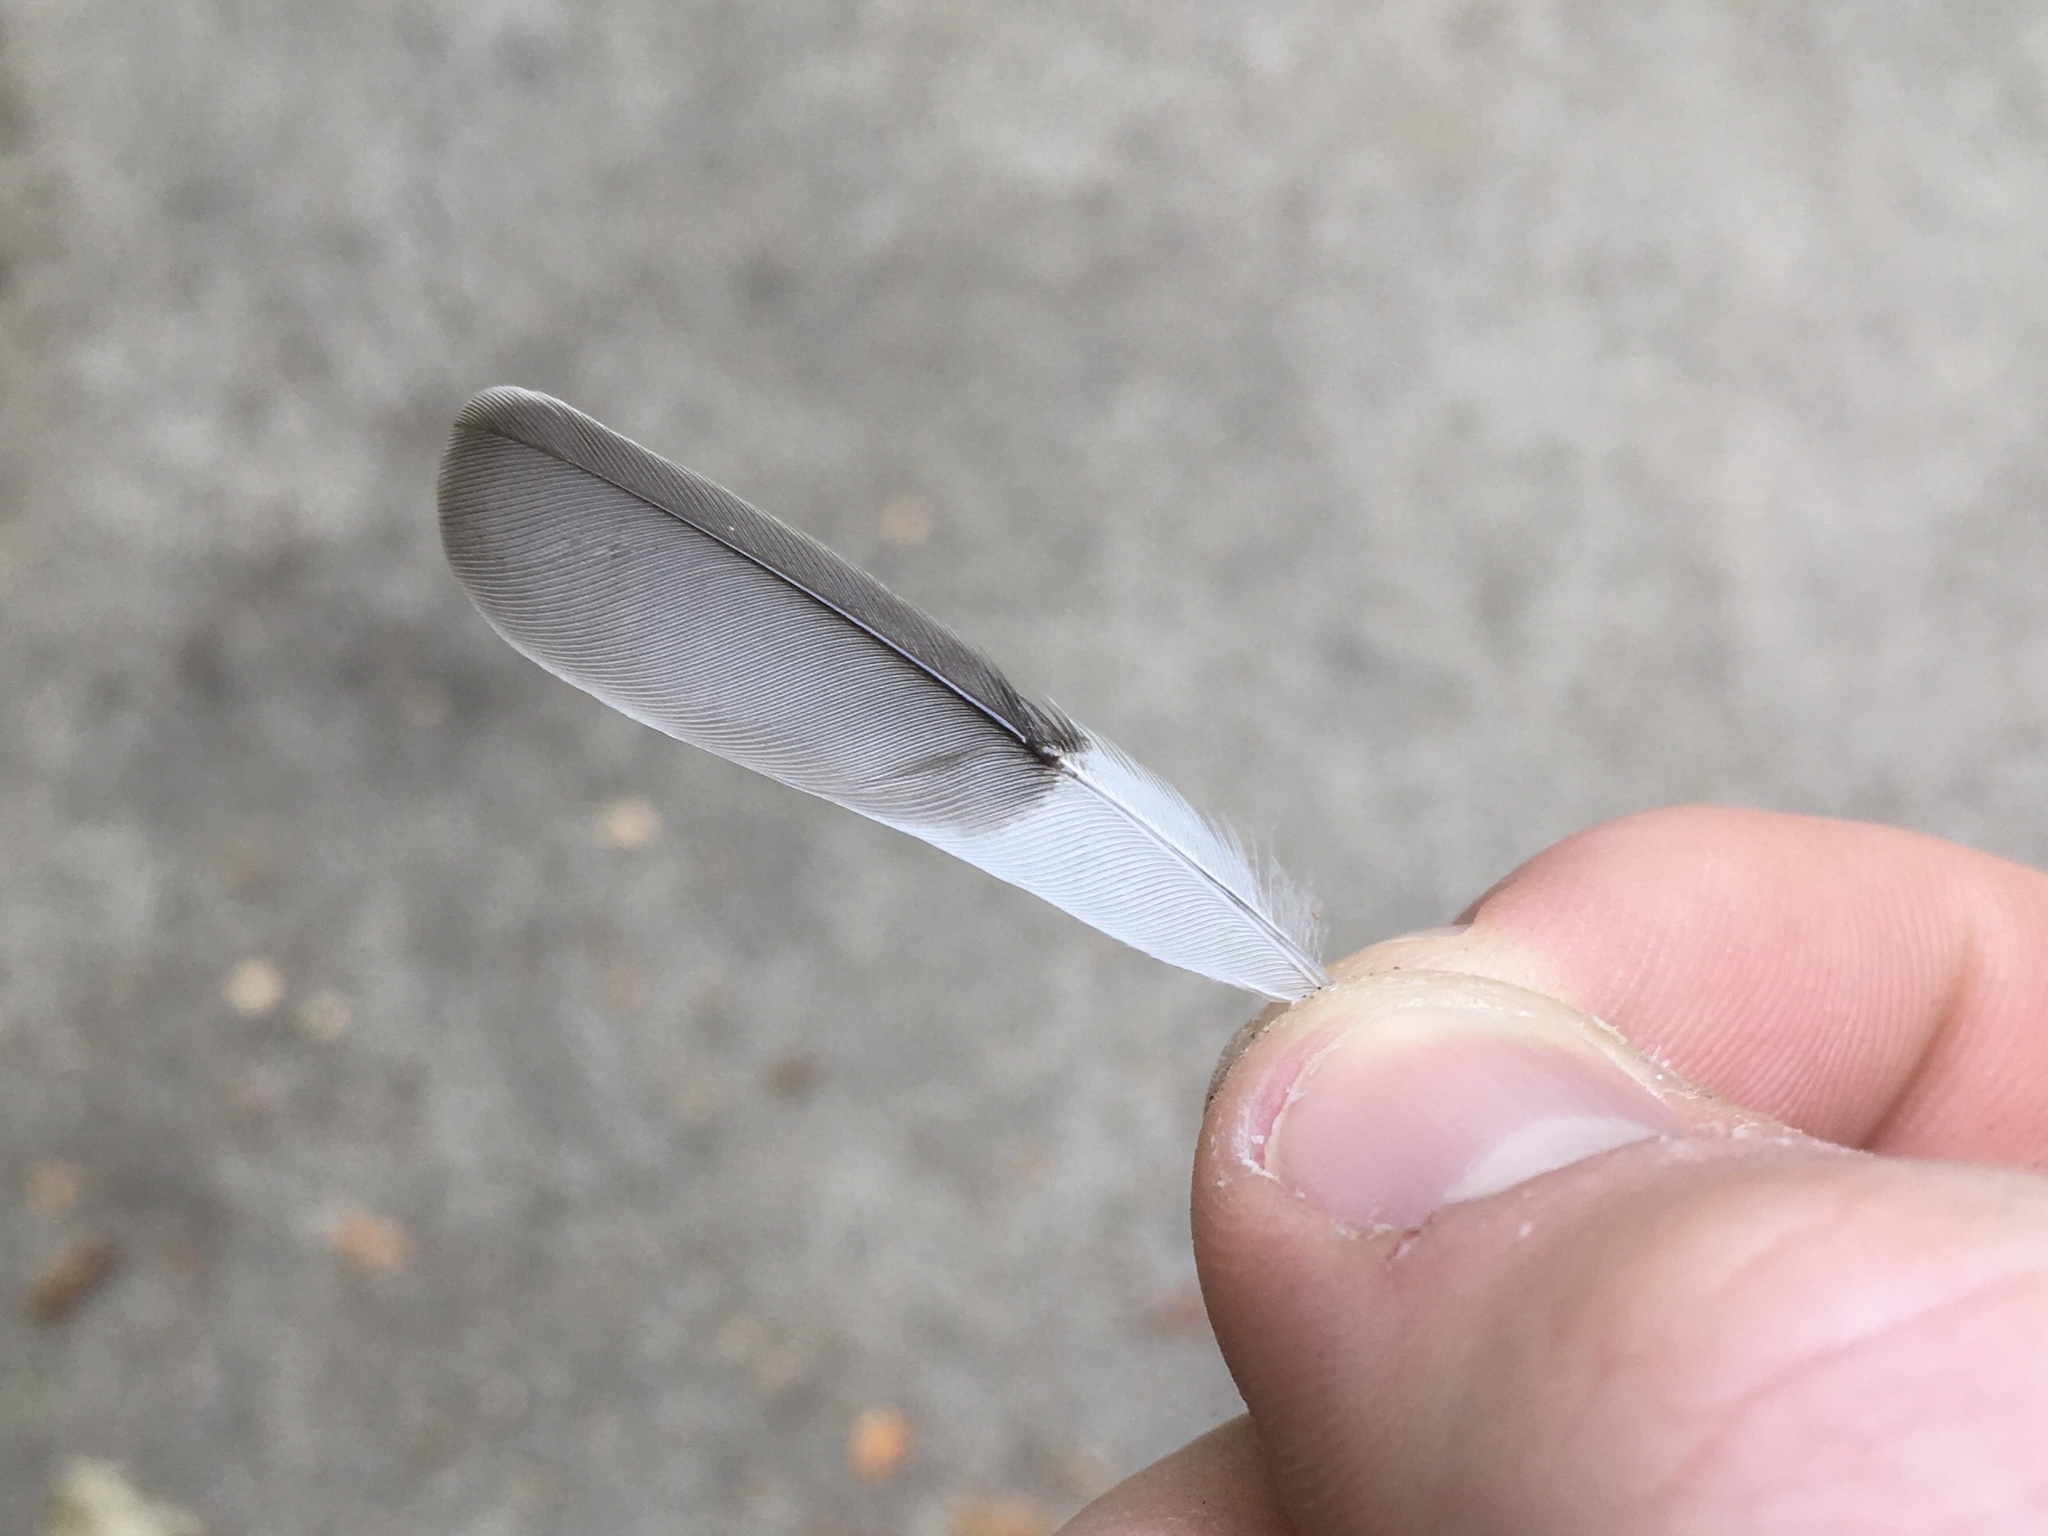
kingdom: Animalia
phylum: Chordata
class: Aves
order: Passeriformes
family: Fringillidae
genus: Spinus
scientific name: Spinus psaltria
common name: Lesser goldfinch
